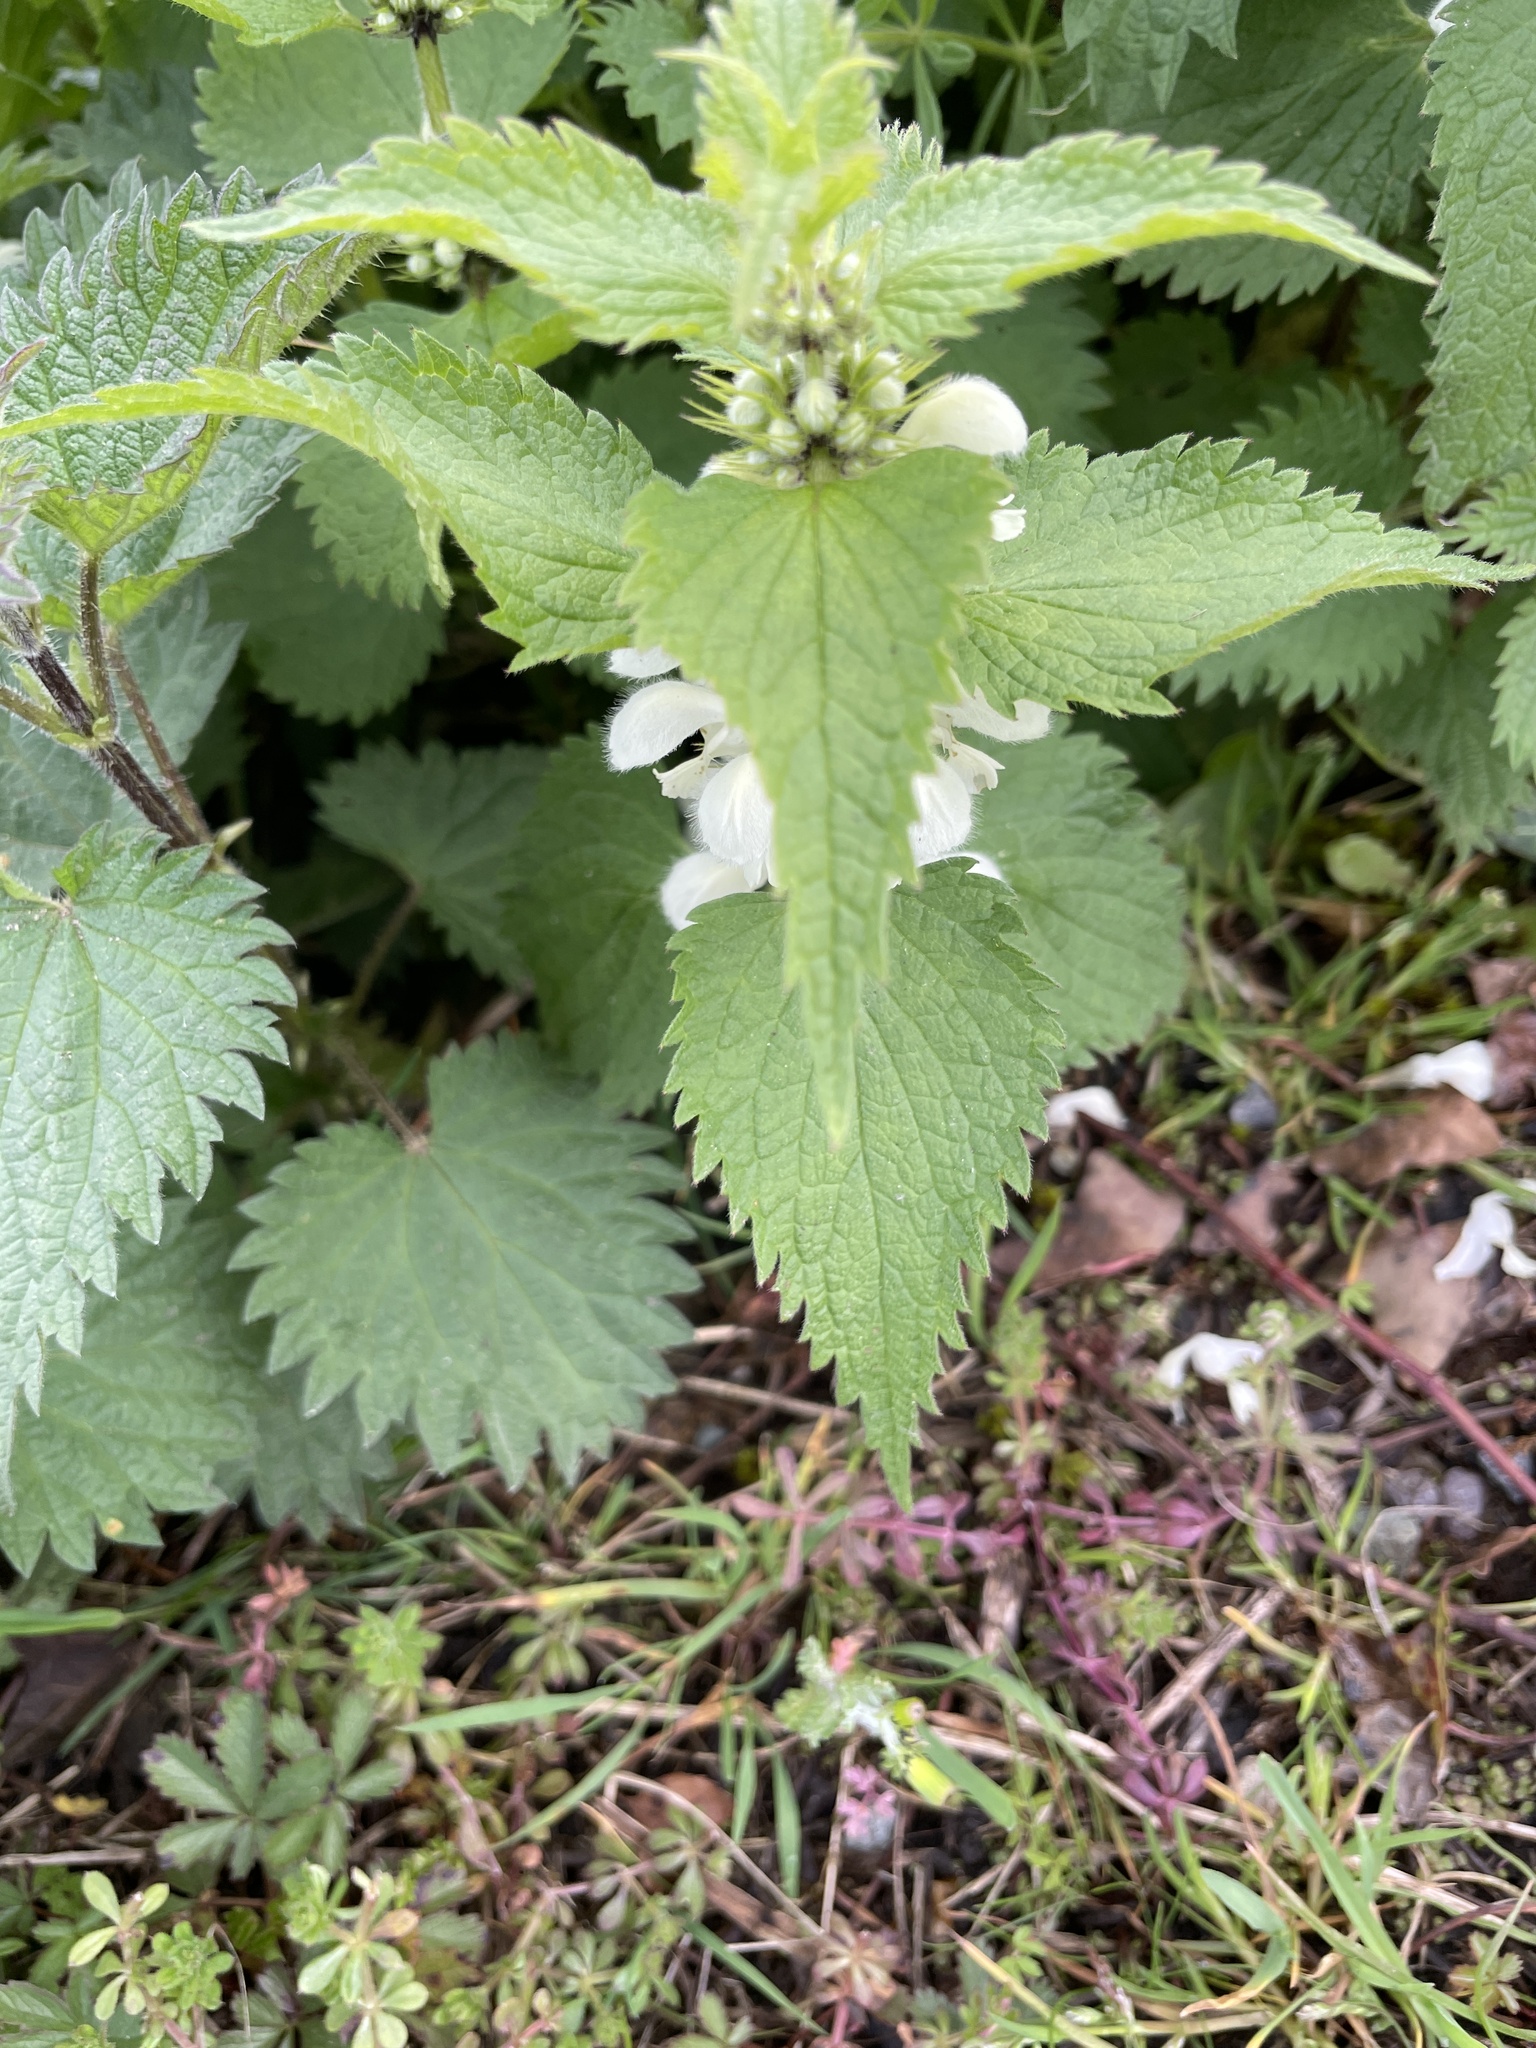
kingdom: Plantae
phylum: Tracheophyta
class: Magnoliopsida
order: Lamiales
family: Lamiaceae
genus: Lamium
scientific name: Lamium album
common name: White dead-nettle
